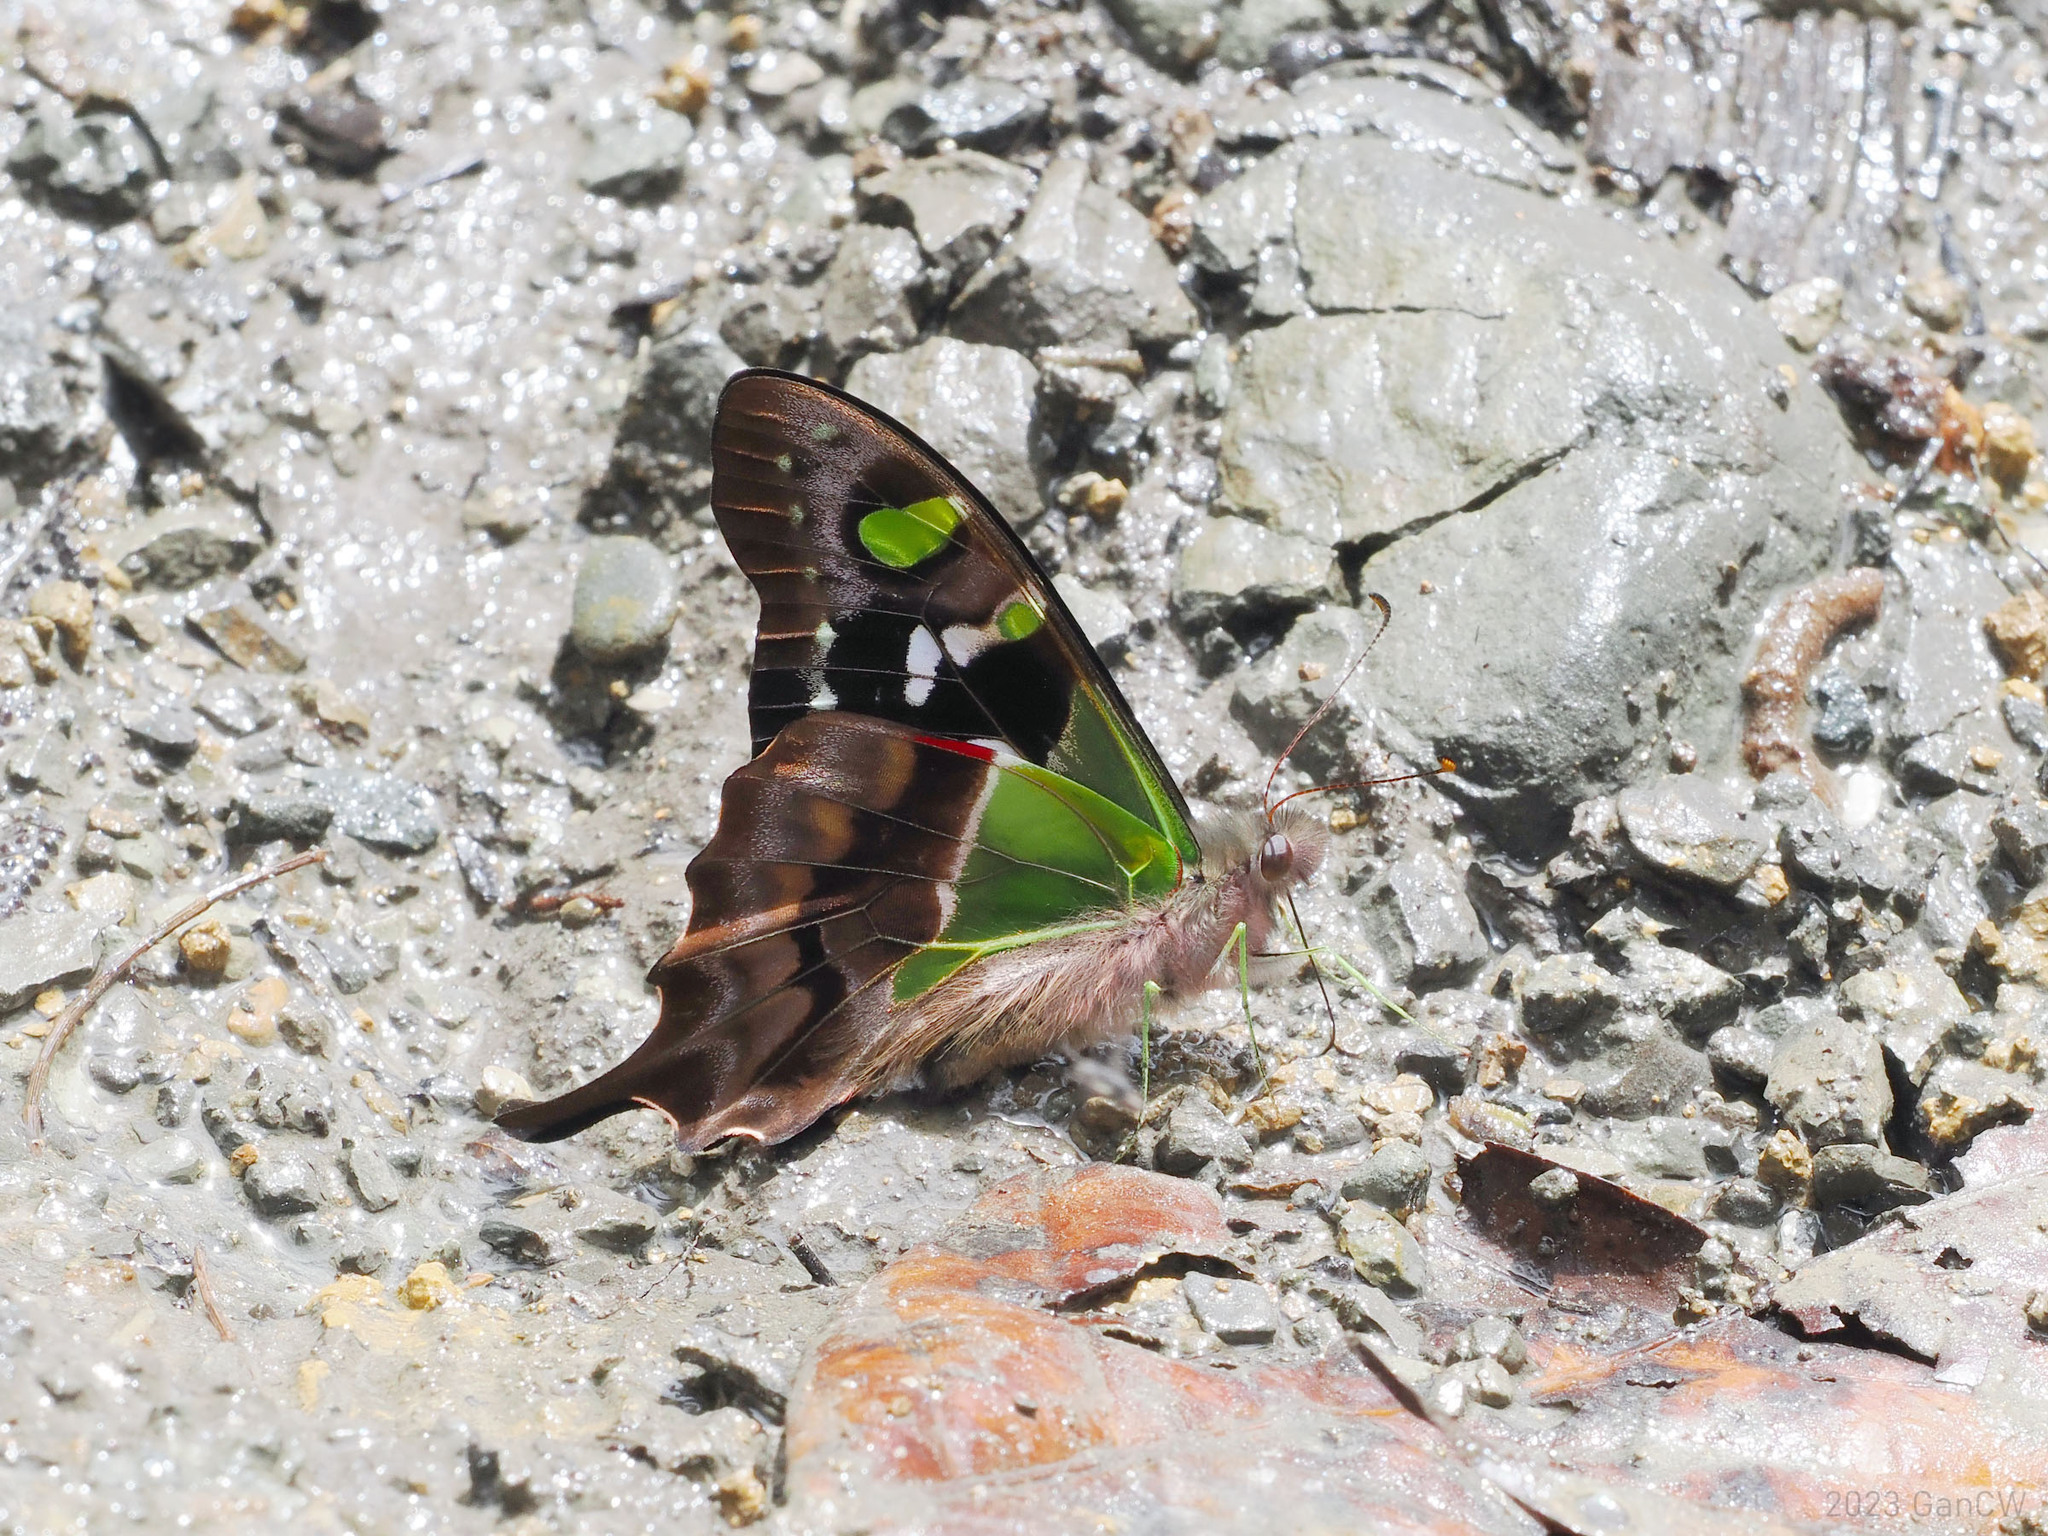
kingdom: Animalia
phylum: Arthropoda
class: Insecta
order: Lepidoptera
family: Papilionidae
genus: Graphium
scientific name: Graphium weiskei
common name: Purple spotted swallowtail
